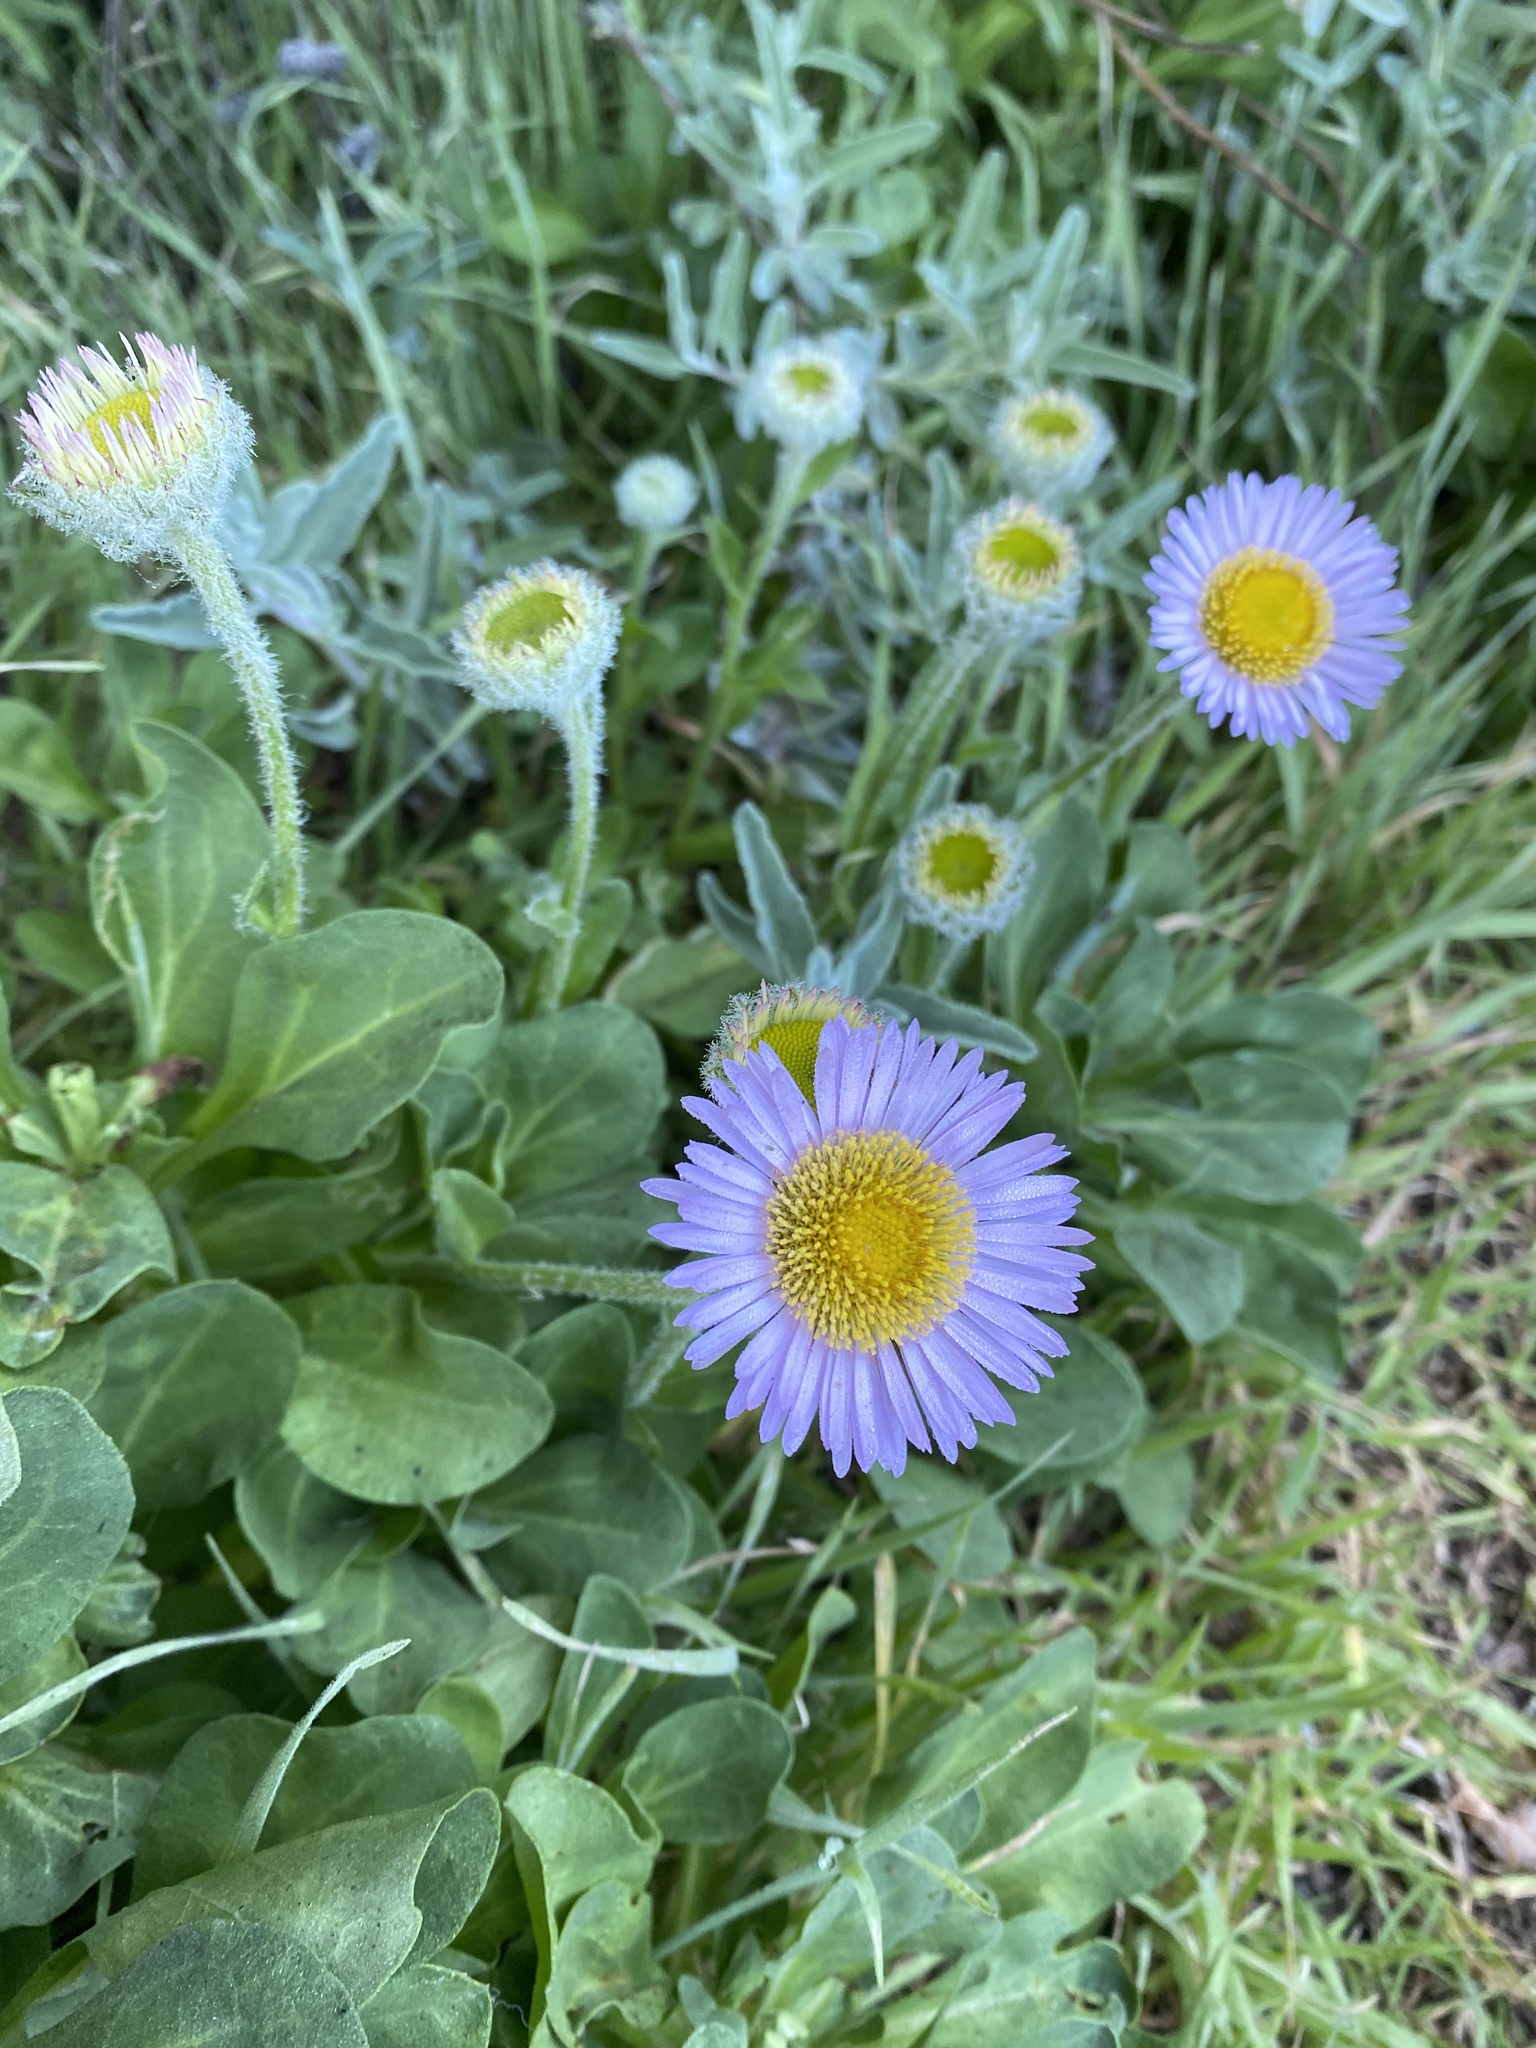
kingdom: Plantae
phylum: Tracheophyta
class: Magnoliopsida
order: Asterales
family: Asteraceae
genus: Erigeron
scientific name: Erigeron glaucus
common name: Seaside daisy
